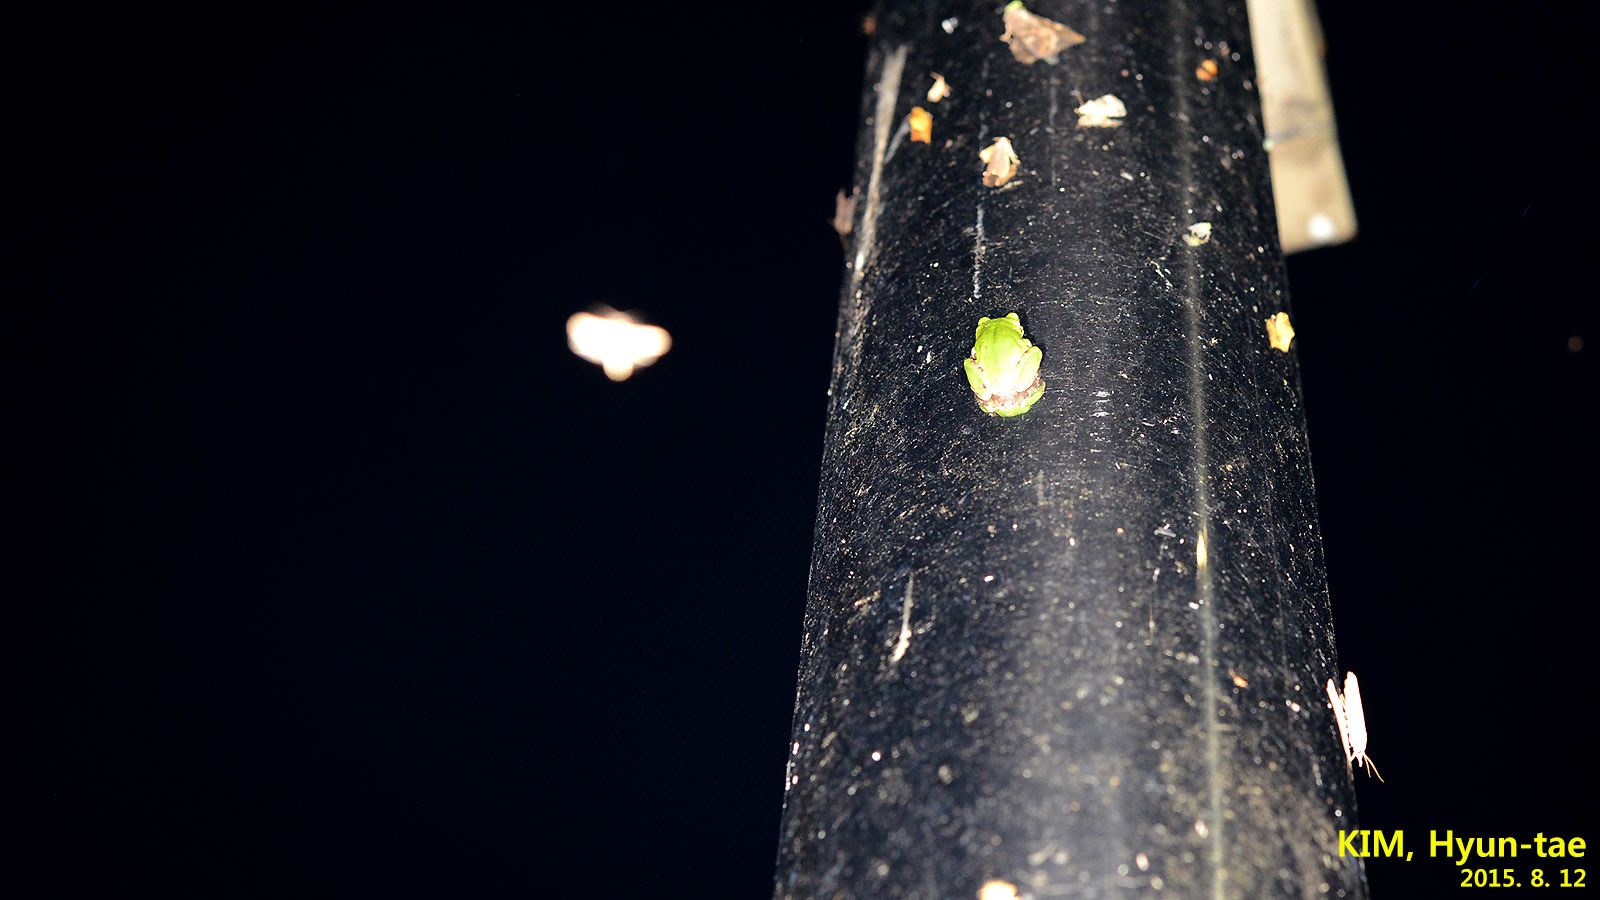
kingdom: Animalia
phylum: Chordata
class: Amphibia
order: Anura
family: Hylidae
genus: Dryophytes
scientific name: Dryophytes japonicus
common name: Japanese treefrog
